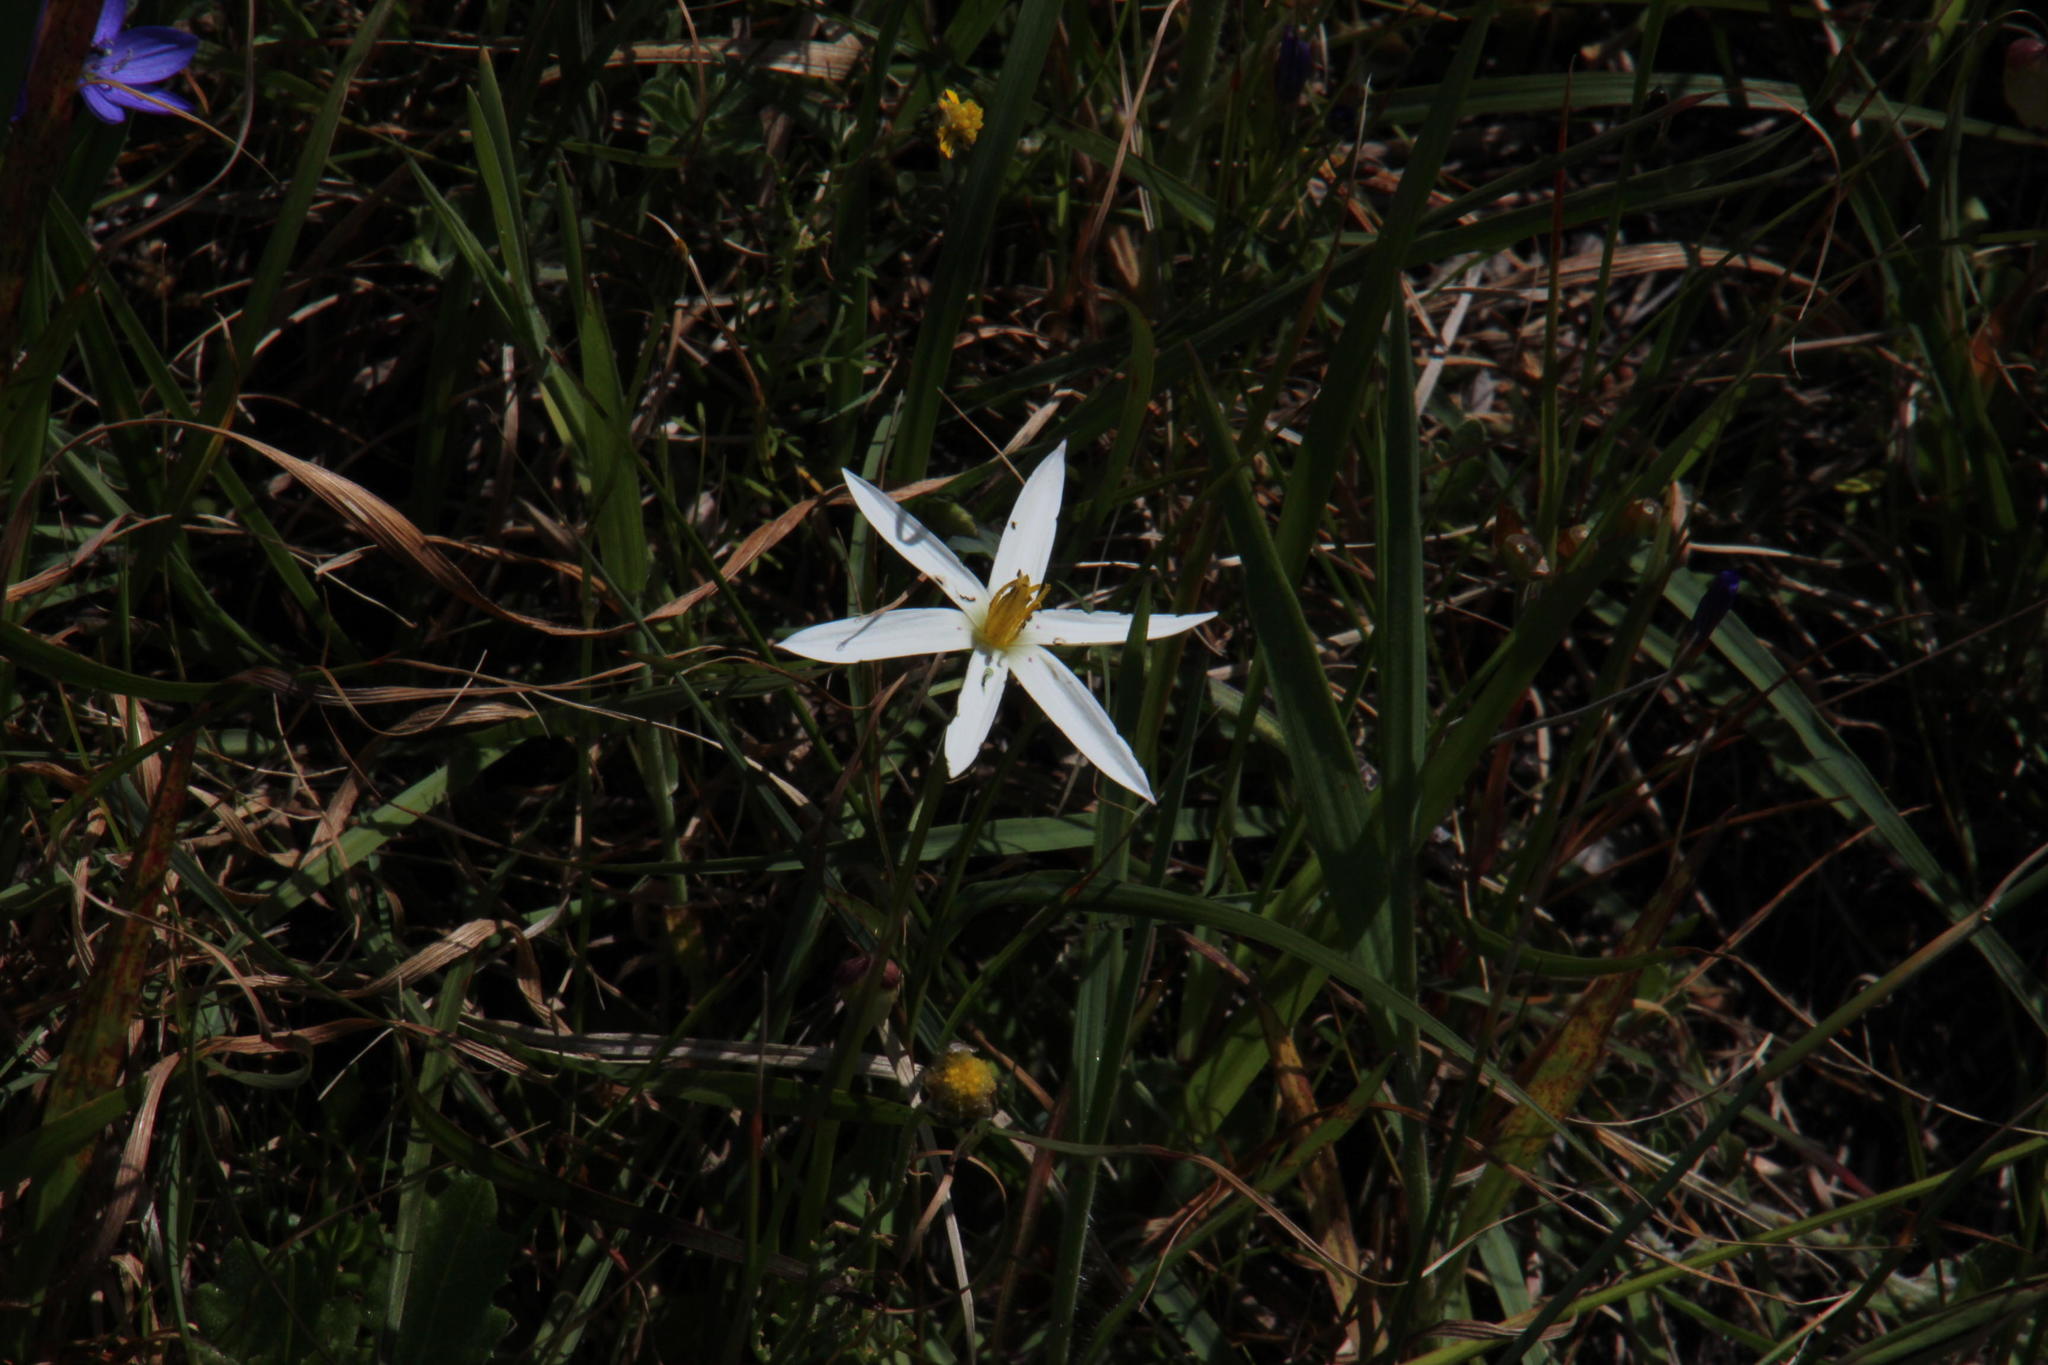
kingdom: Plantae
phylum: Tracheophyta
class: Liliopsida
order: Asparagales
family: Hypoxidaceae
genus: Pauridia
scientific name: Pauridia capensis
